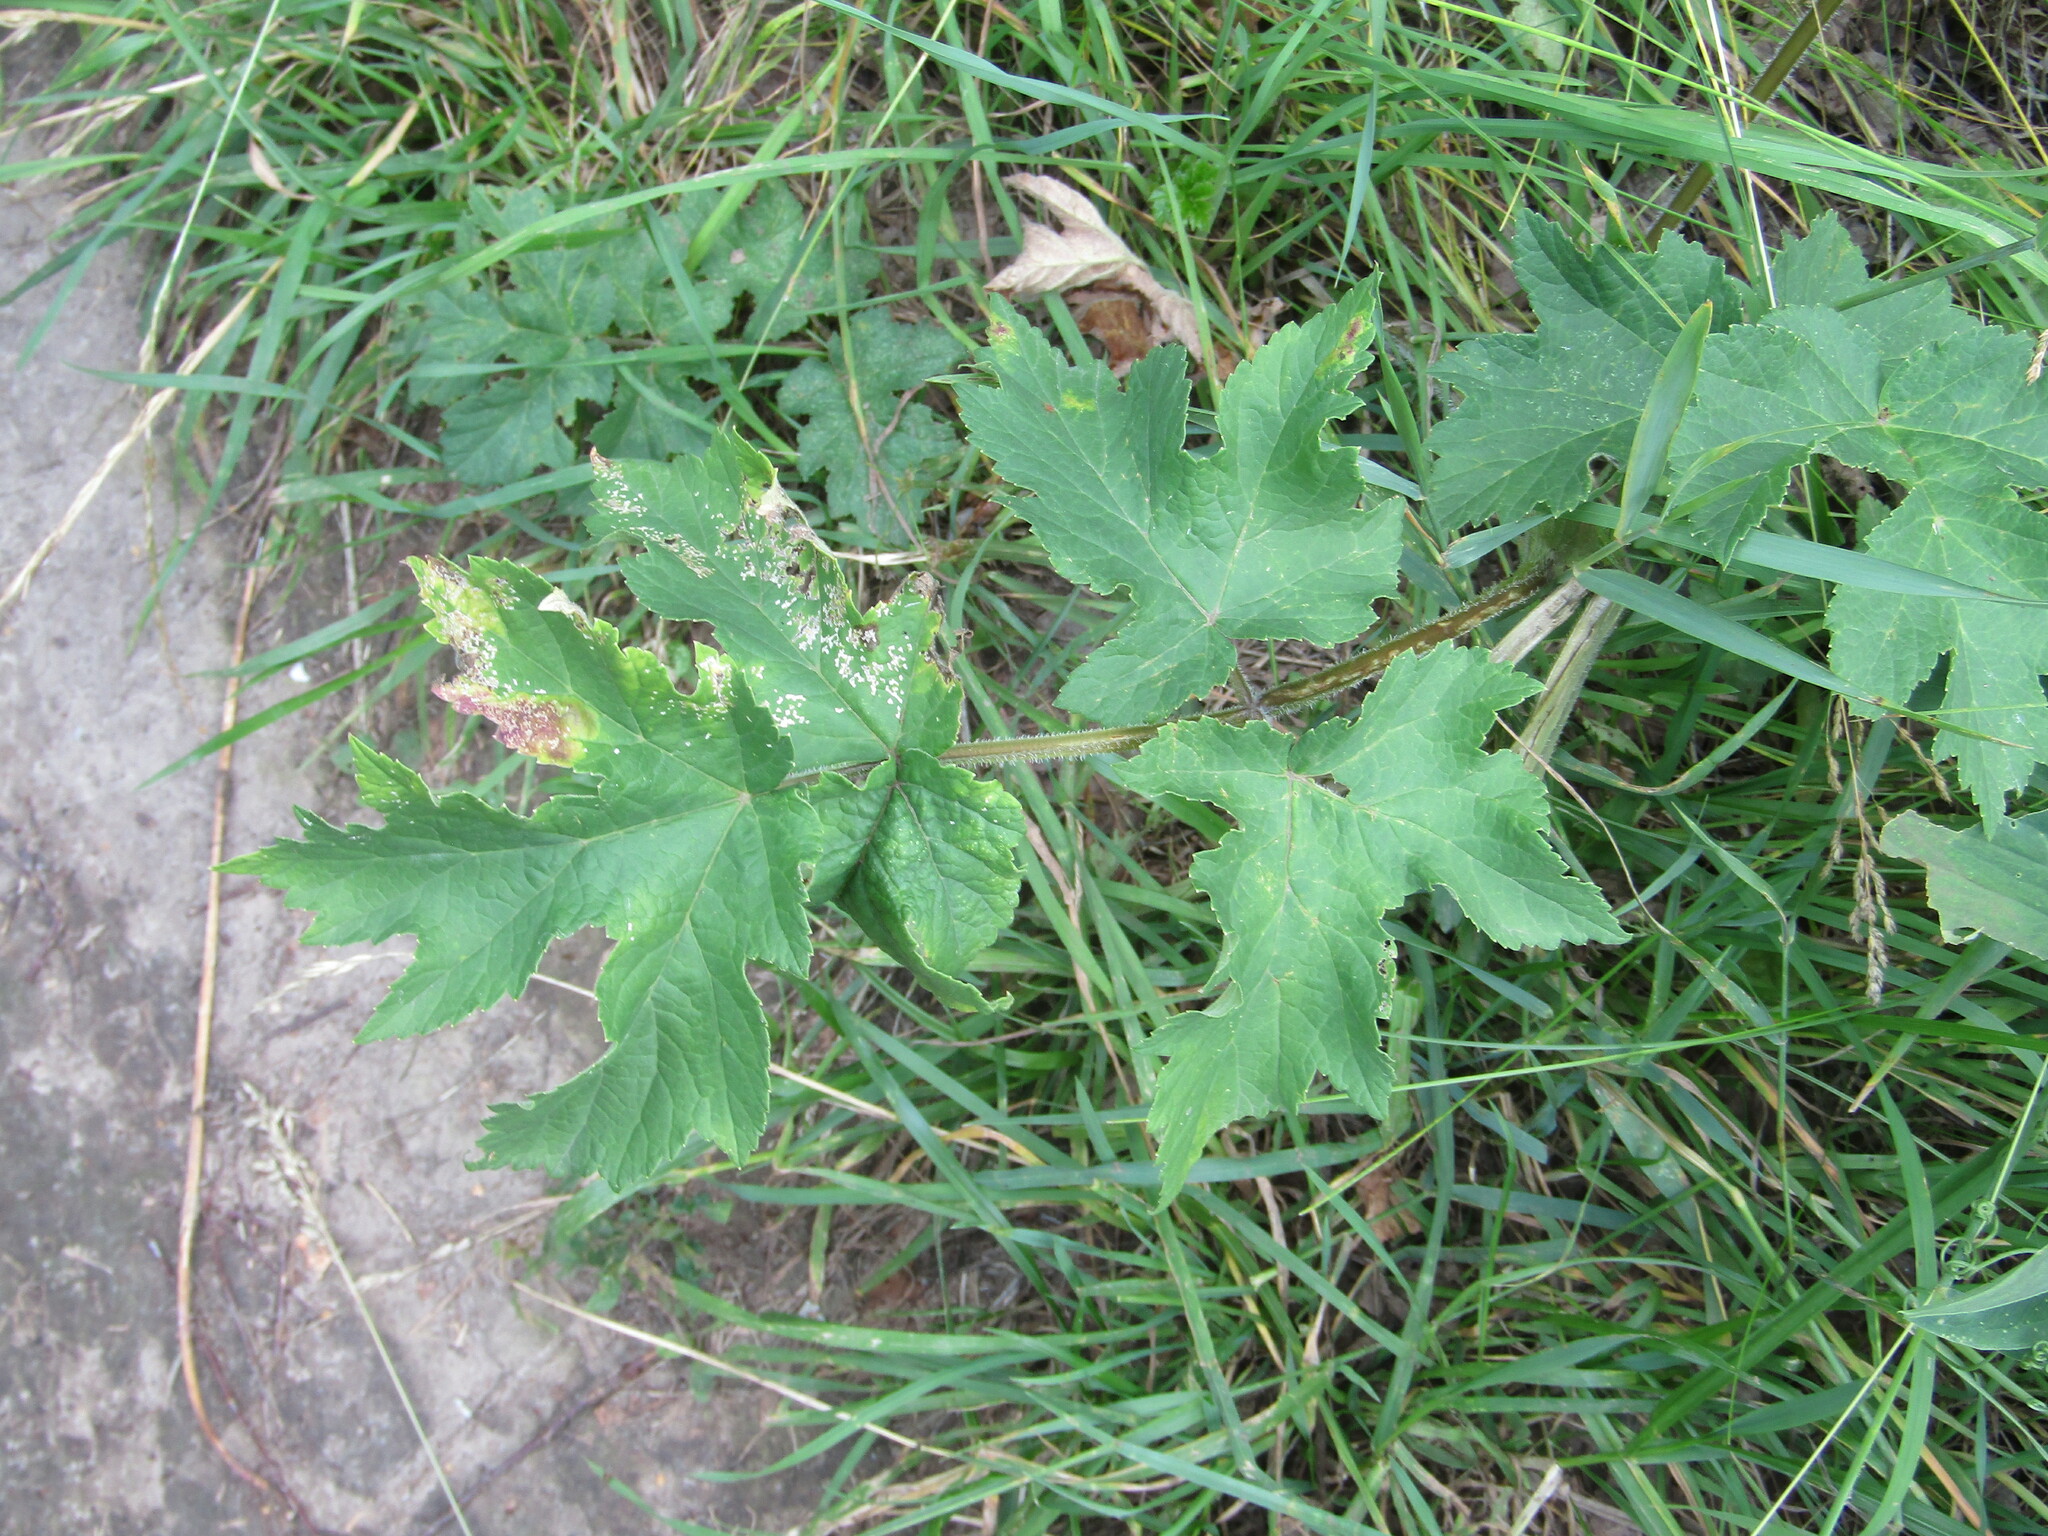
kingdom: Plantae
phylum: Tracheophyta
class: Magnoliopsida
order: Apiales
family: Apiaceae
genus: Heracleum
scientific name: Heracleum sphondylium
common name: Hogweed
